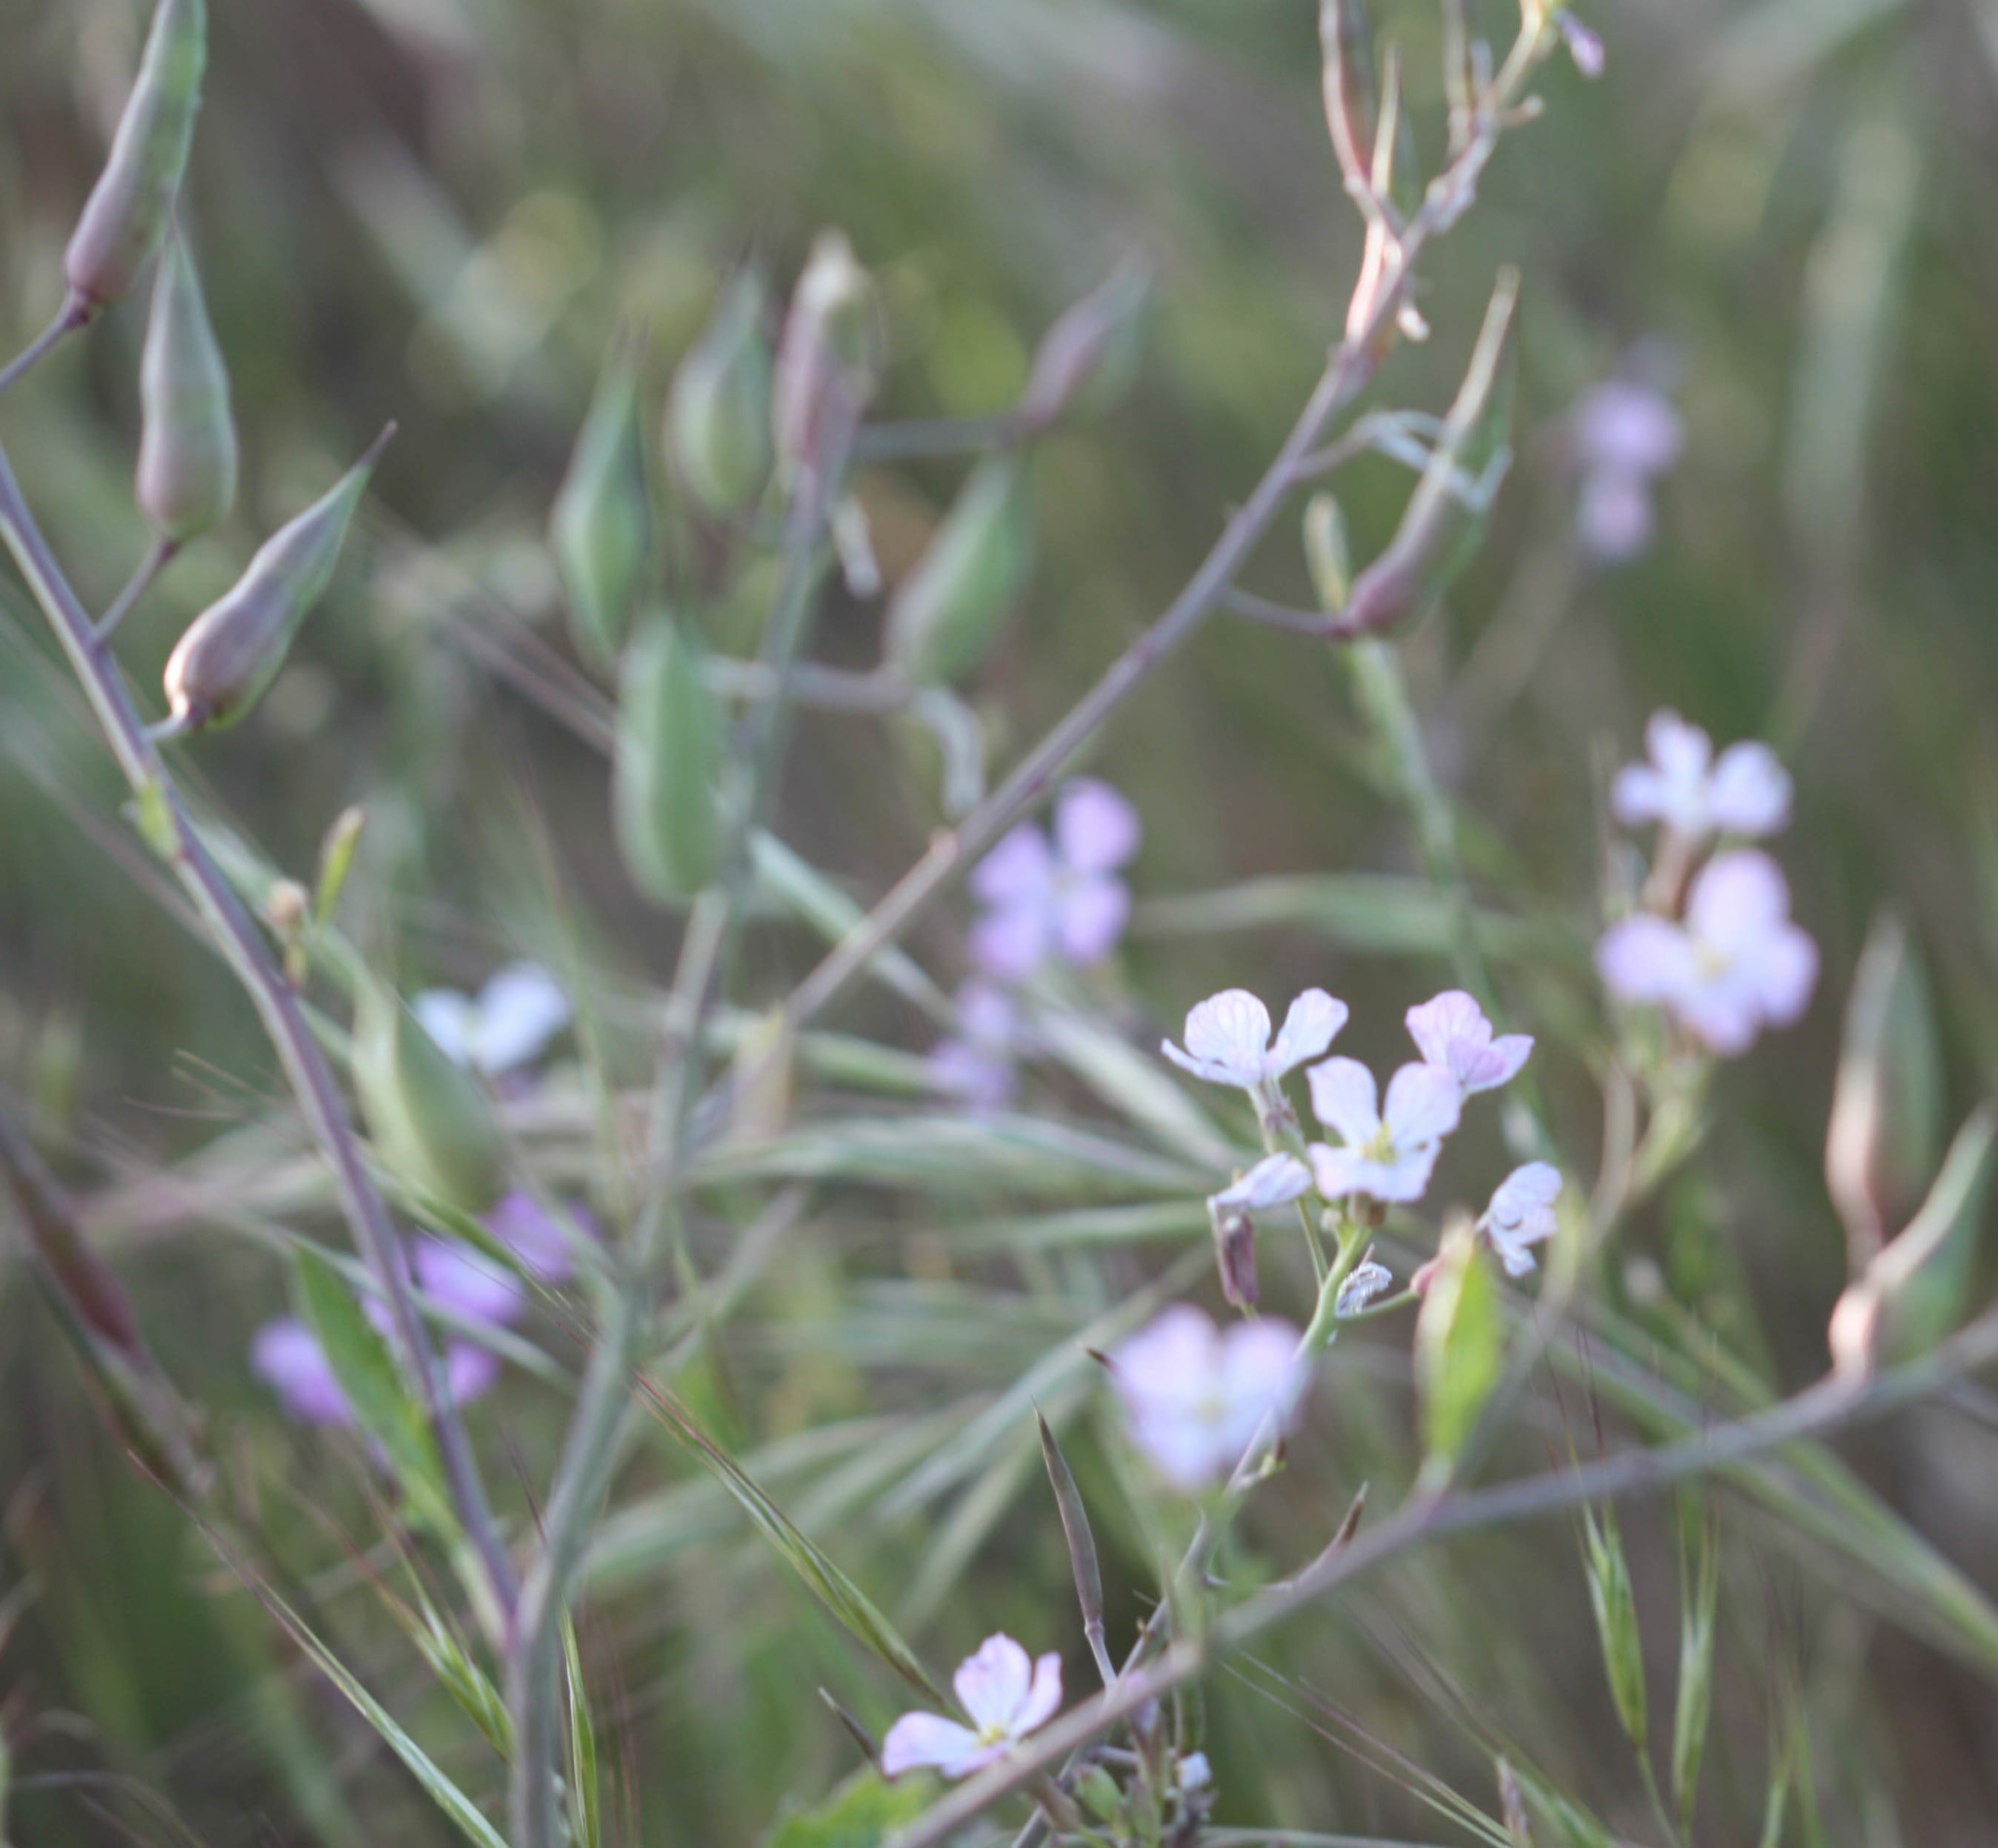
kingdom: Plantae
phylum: Tracheophyta
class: Magnoliopsida
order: Brassicales
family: Brassicaceae
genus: Raphanus
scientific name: Raphanus sativus
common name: Cultivated radish
